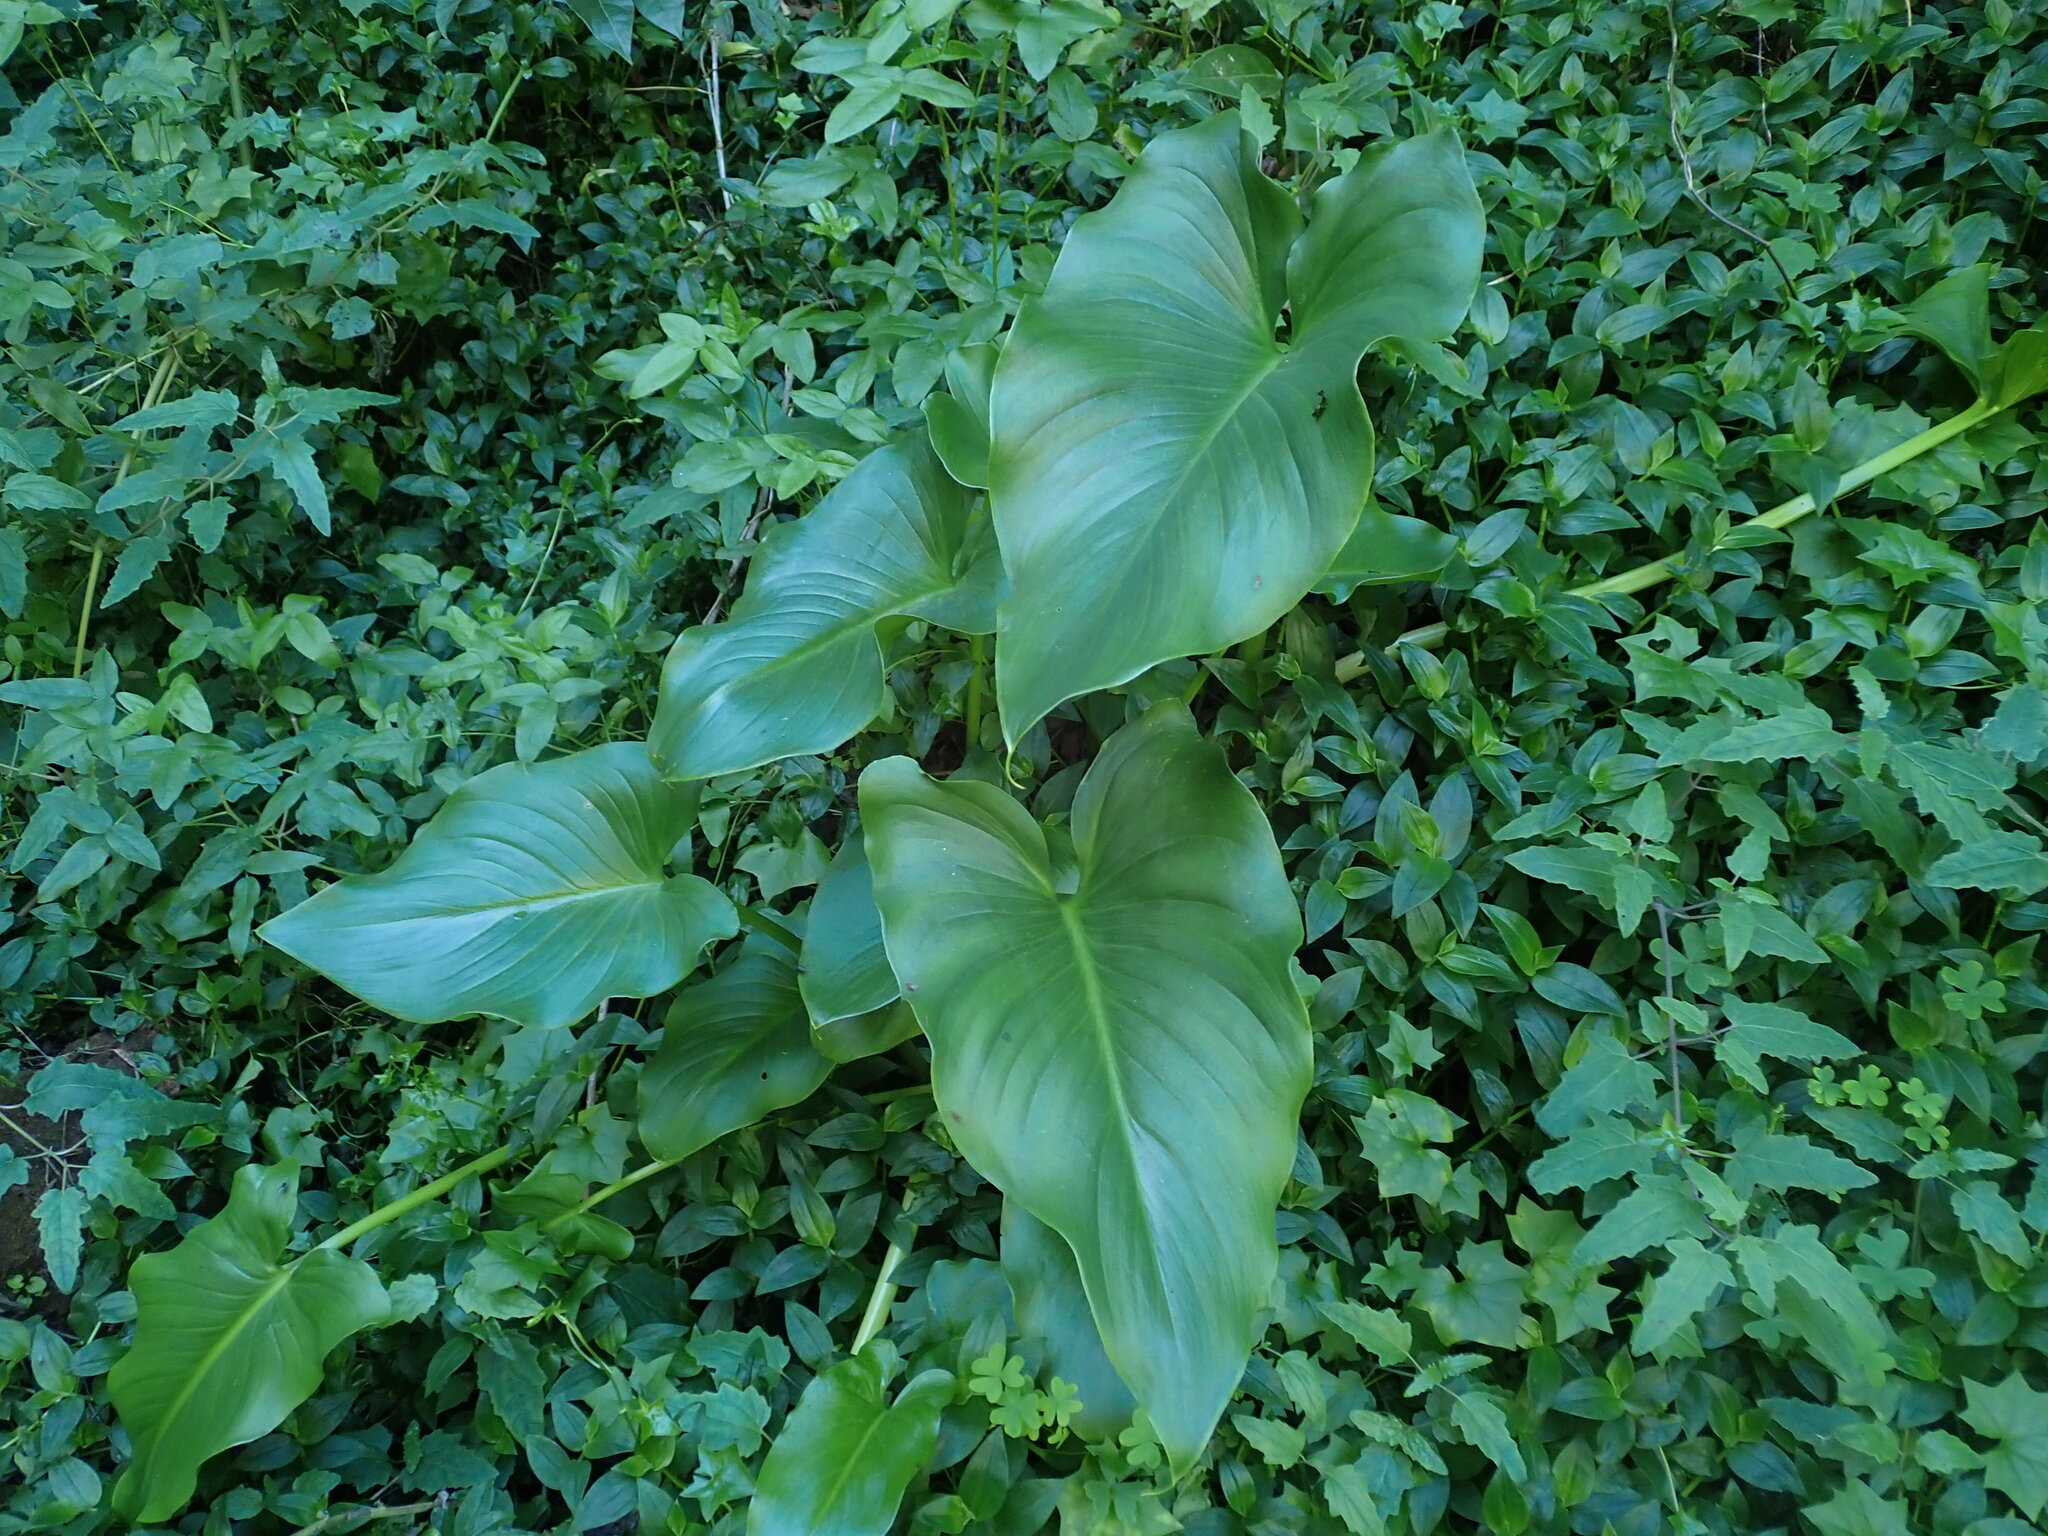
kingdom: Plantae
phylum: Tracheophyta
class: Liliopsida
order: Alismatales
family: Araceae
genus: Zantedeschia
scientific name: Zantedeschia aethiopica
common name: Altar-lily
